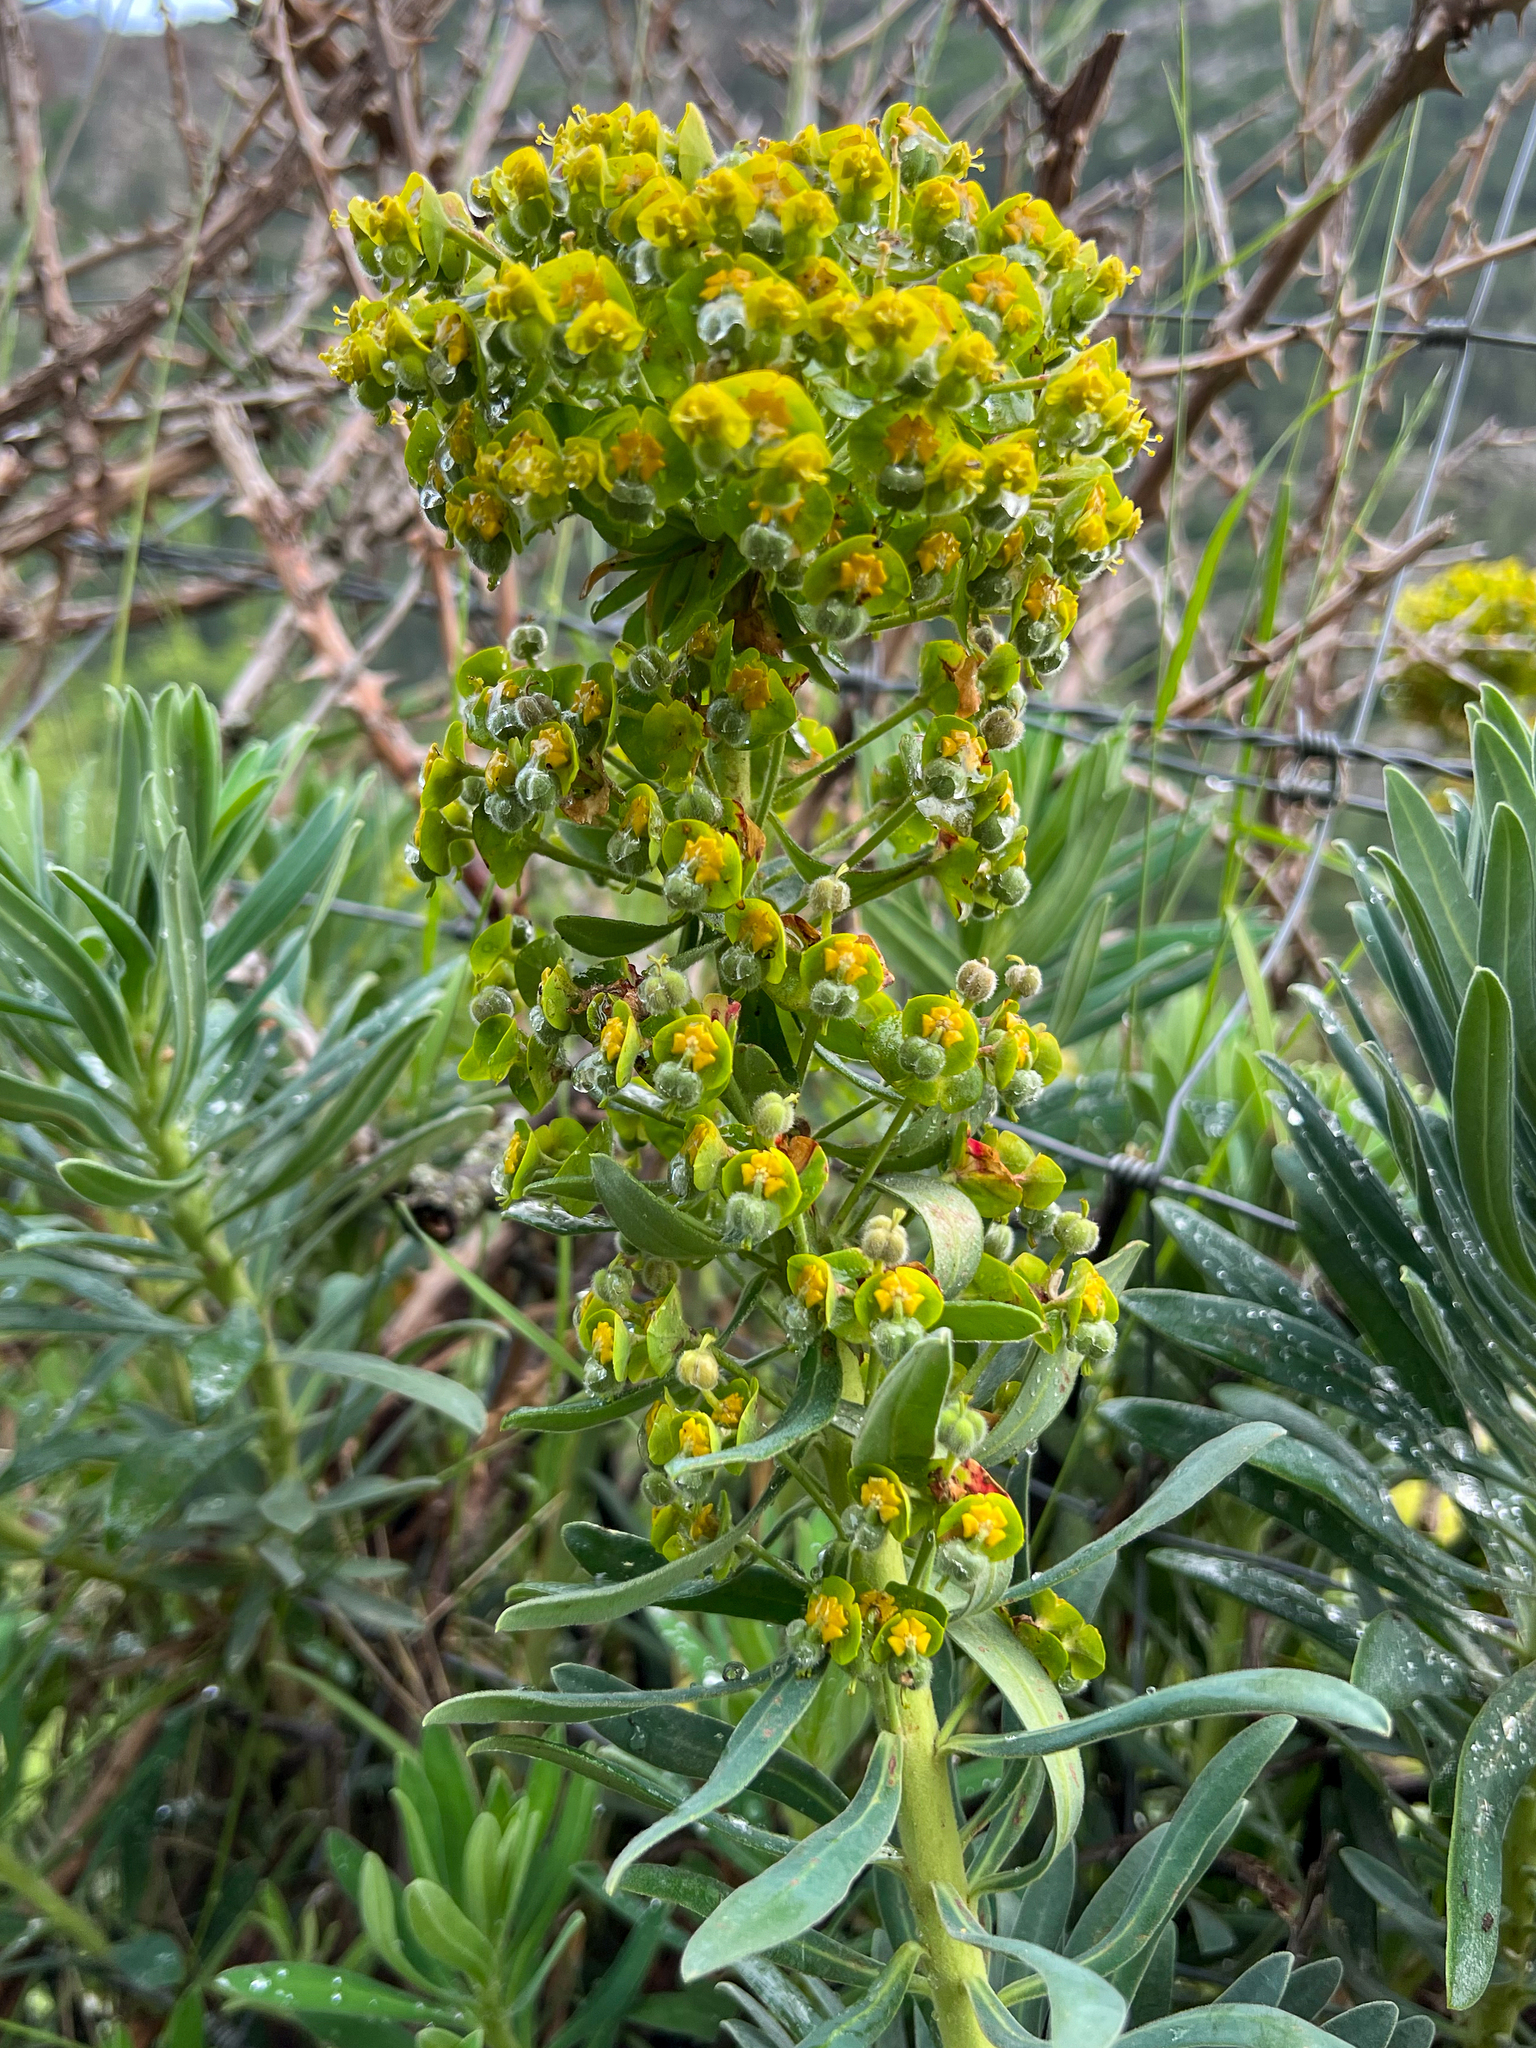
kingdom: Plantae
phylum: Tracheophyta
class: Magnoliopsida
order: Malpighiales
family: Euphorbiaceae
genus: Euphorbia
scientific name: Euphorbia characias
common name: Mediterranean spurge
